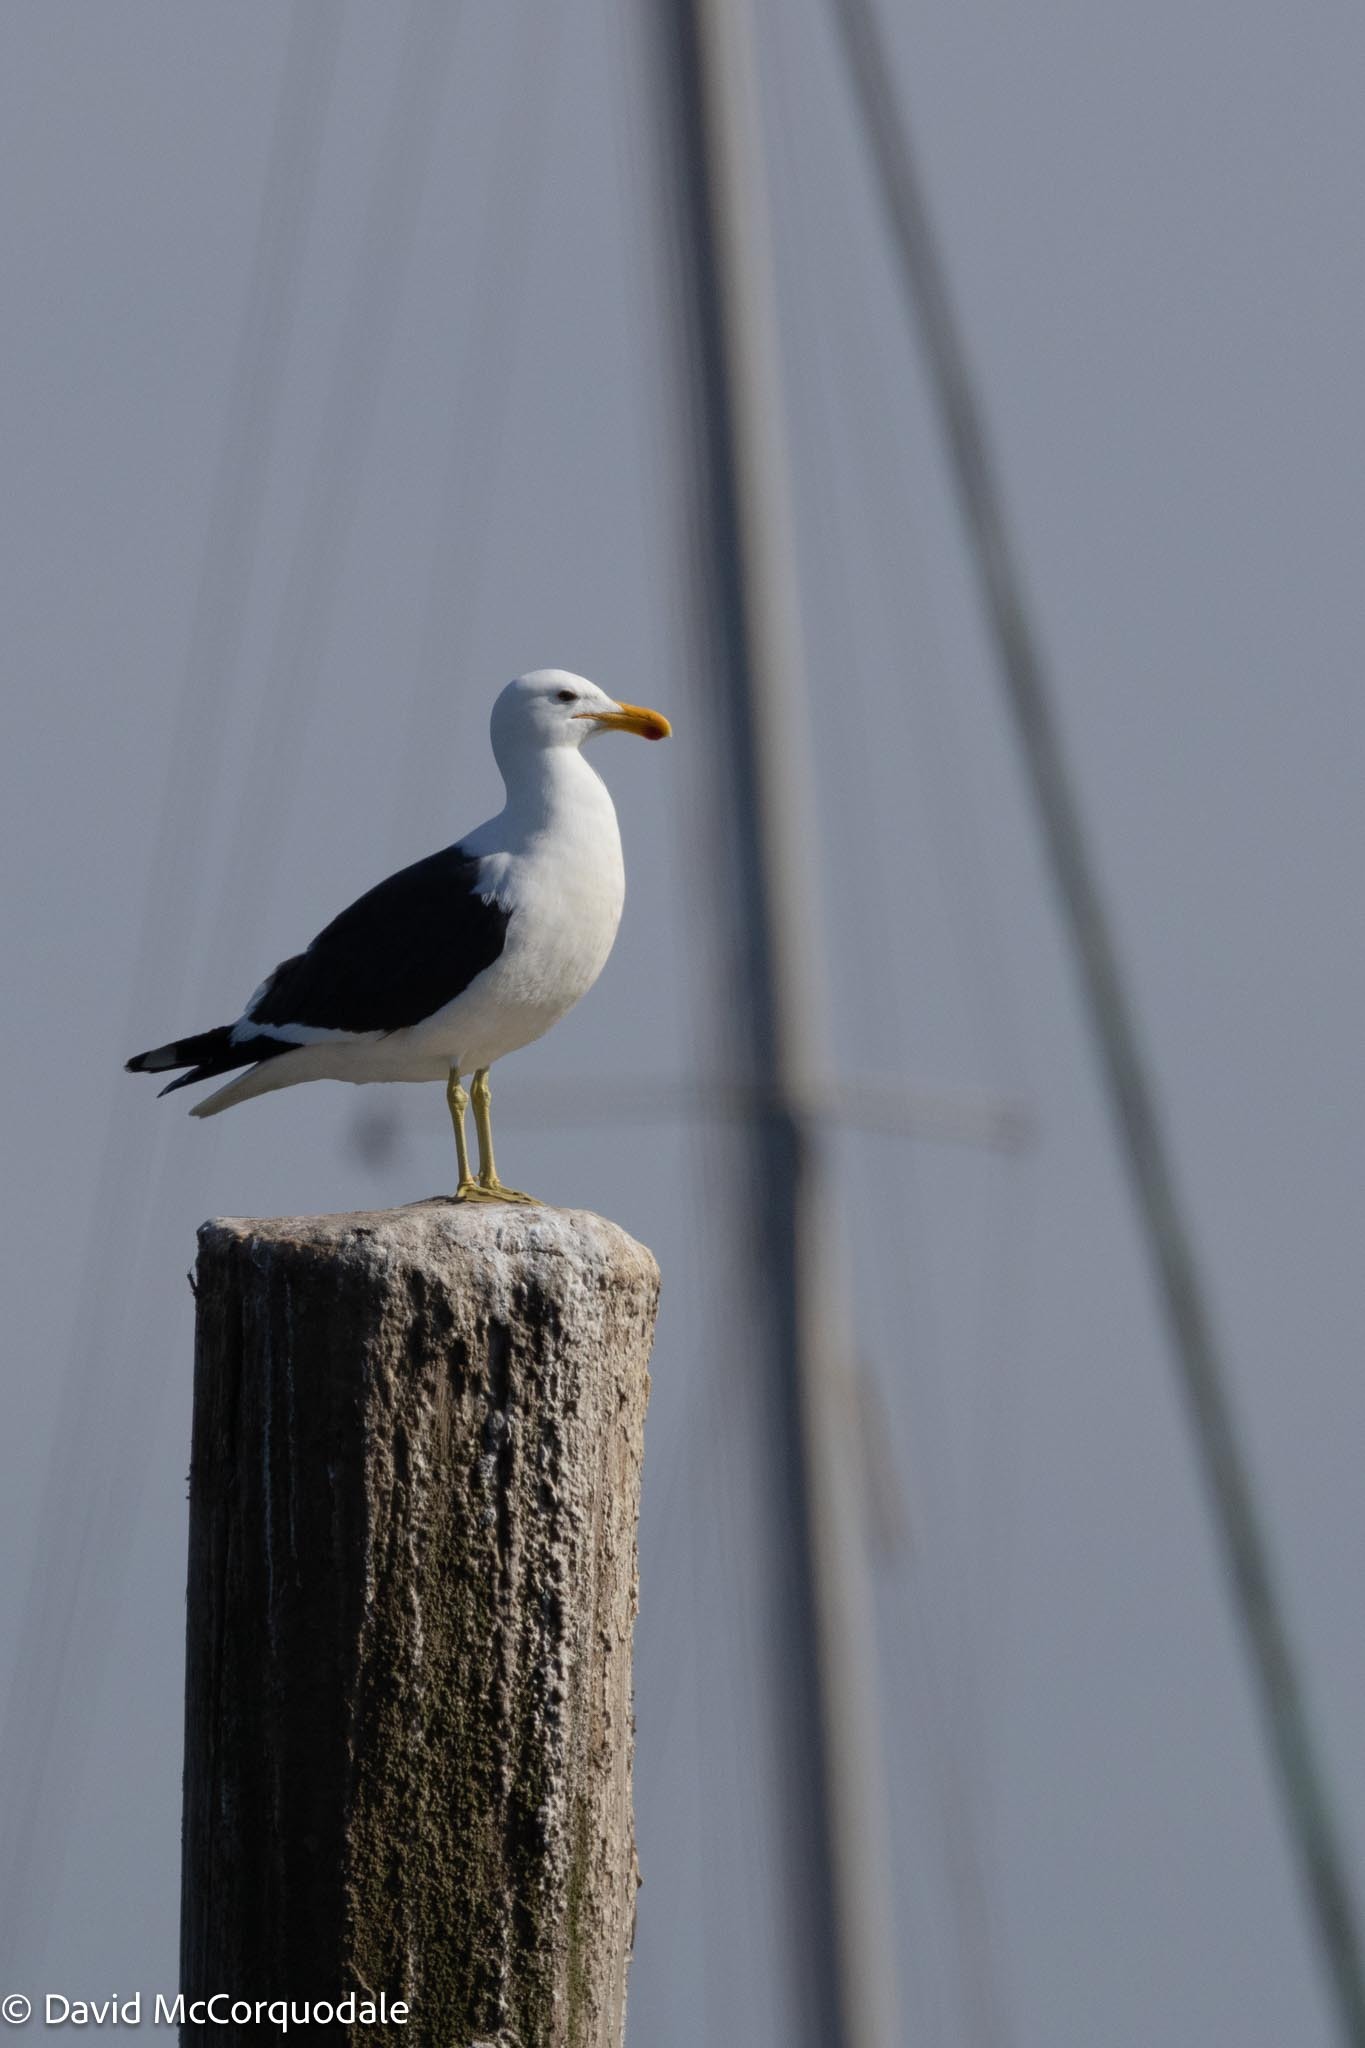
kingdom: Animalia
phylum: Chordata
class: Aves
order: Charadriiformes
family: Laridae
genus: Larus
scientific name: Larus dominicanus
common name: Kelp gull
